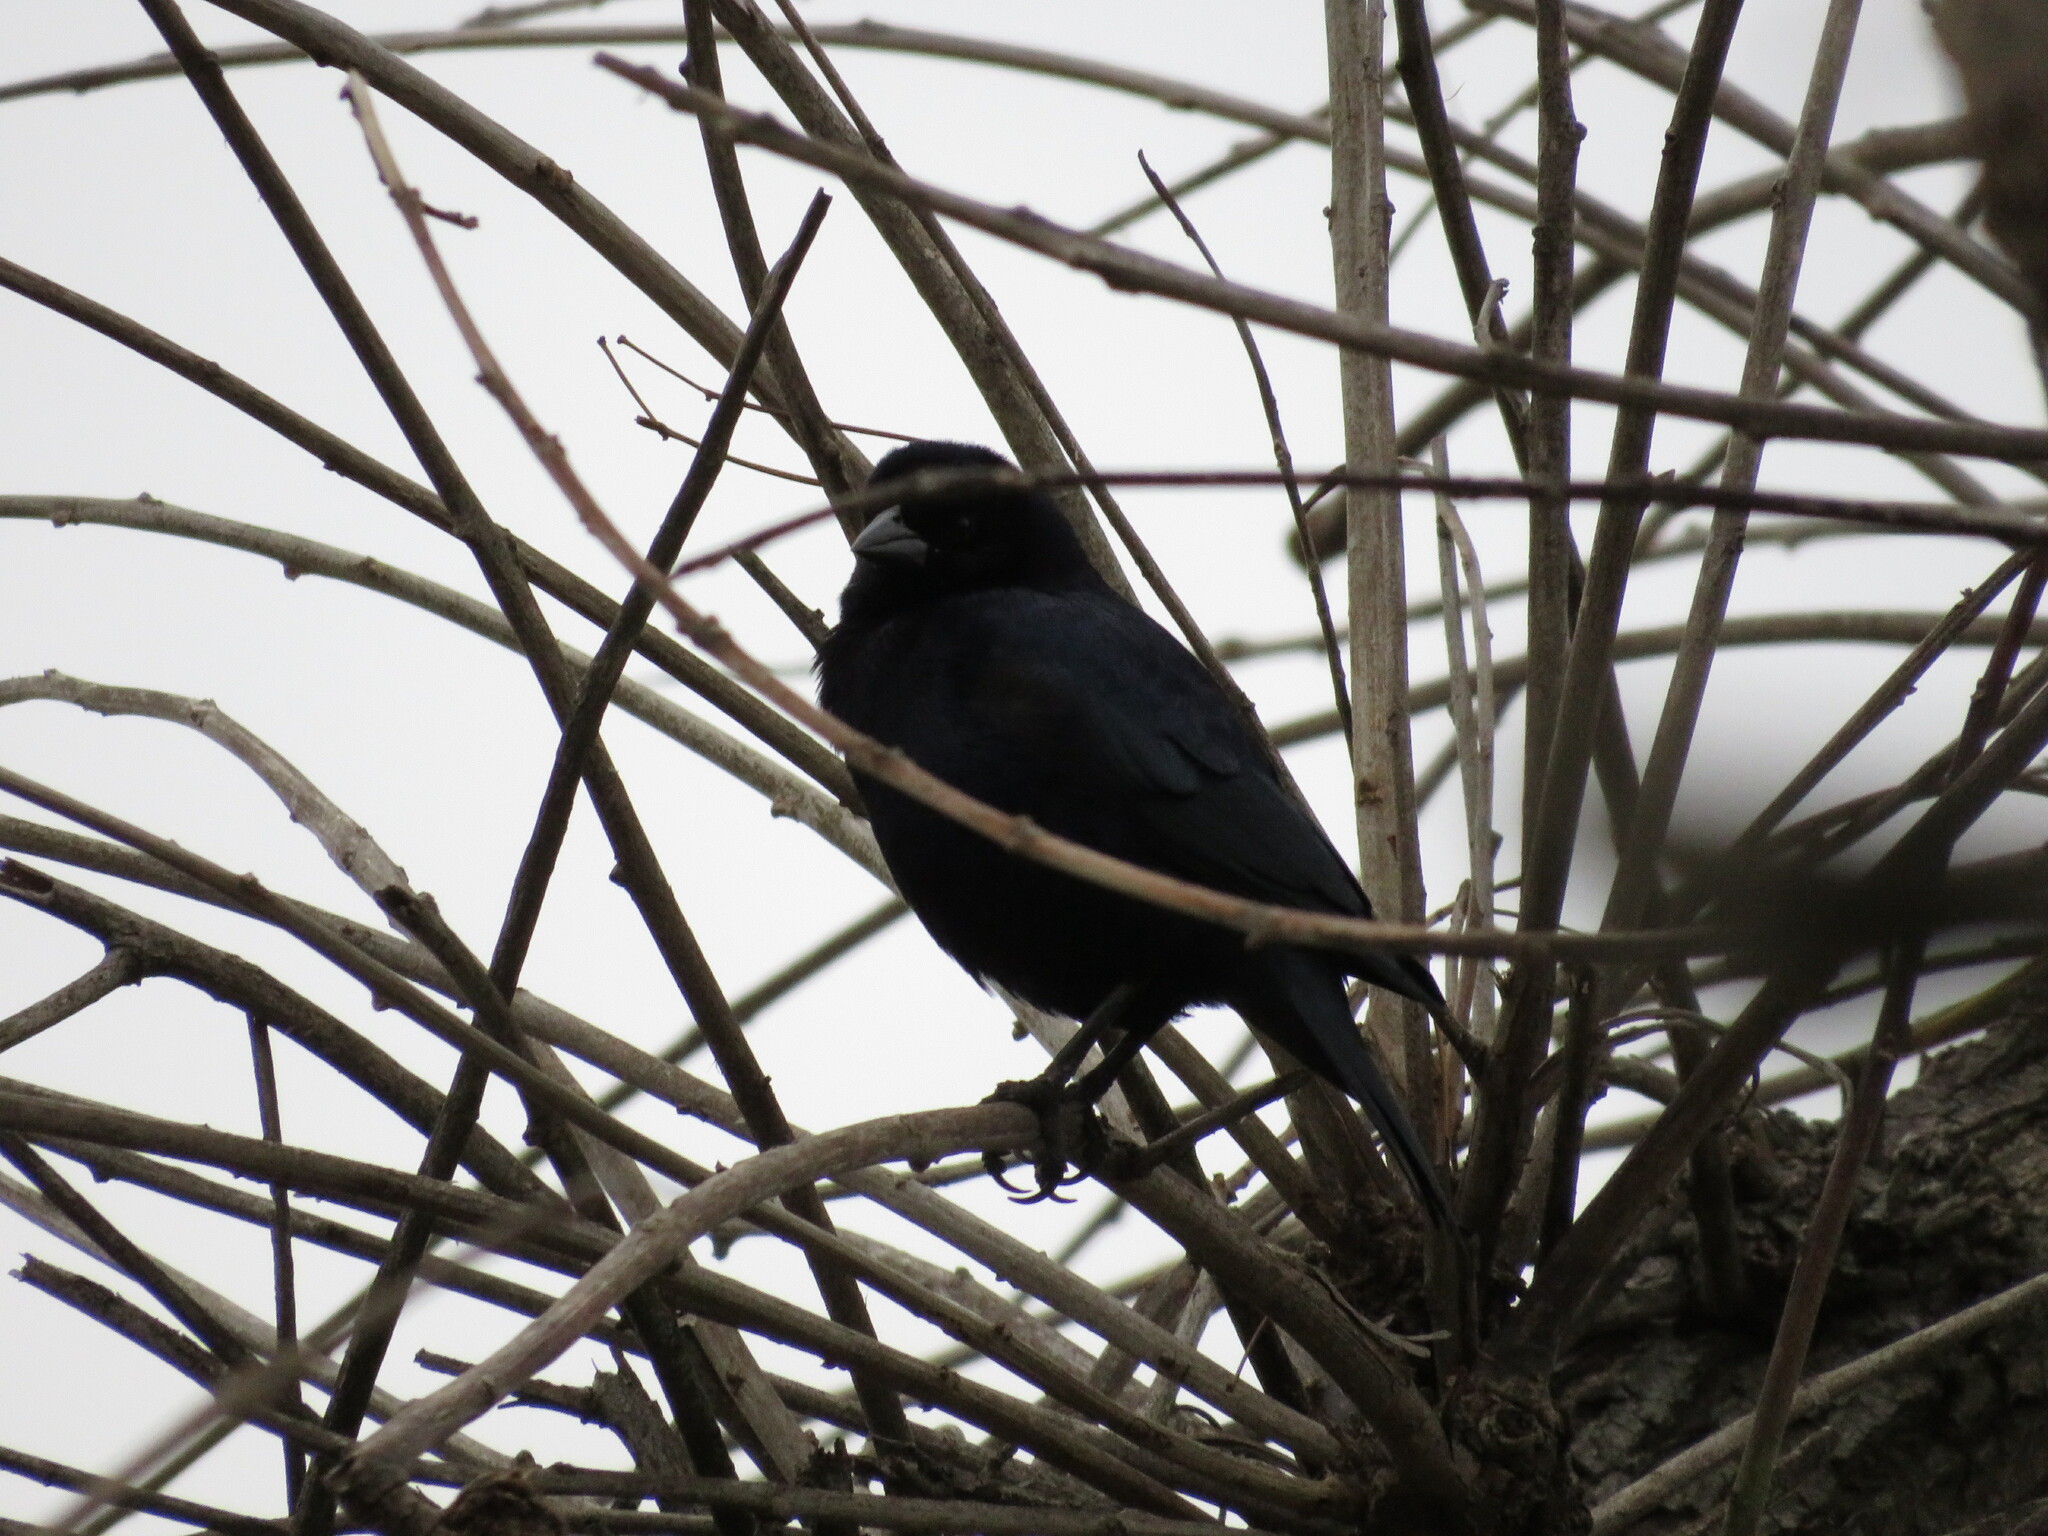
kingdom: Animalia
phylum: Chordata
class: Aves
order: Passeriformes
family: Icteridae
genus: Molothrus
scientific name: Molothrus bonariensis
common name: Shiny cowbird
